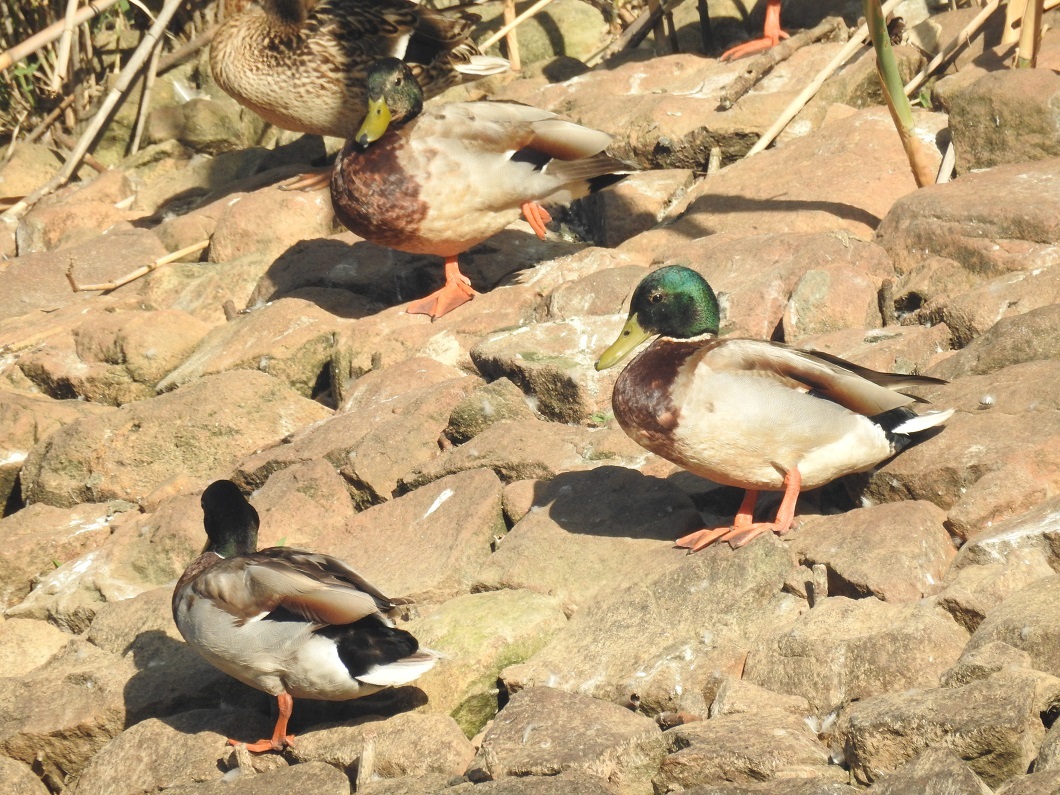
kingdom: Animalia
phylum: Chordata
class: Aves
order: Anseriformes
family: Anatidae
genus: Anas
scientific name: Anas platyrhynchos
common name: Mallard
